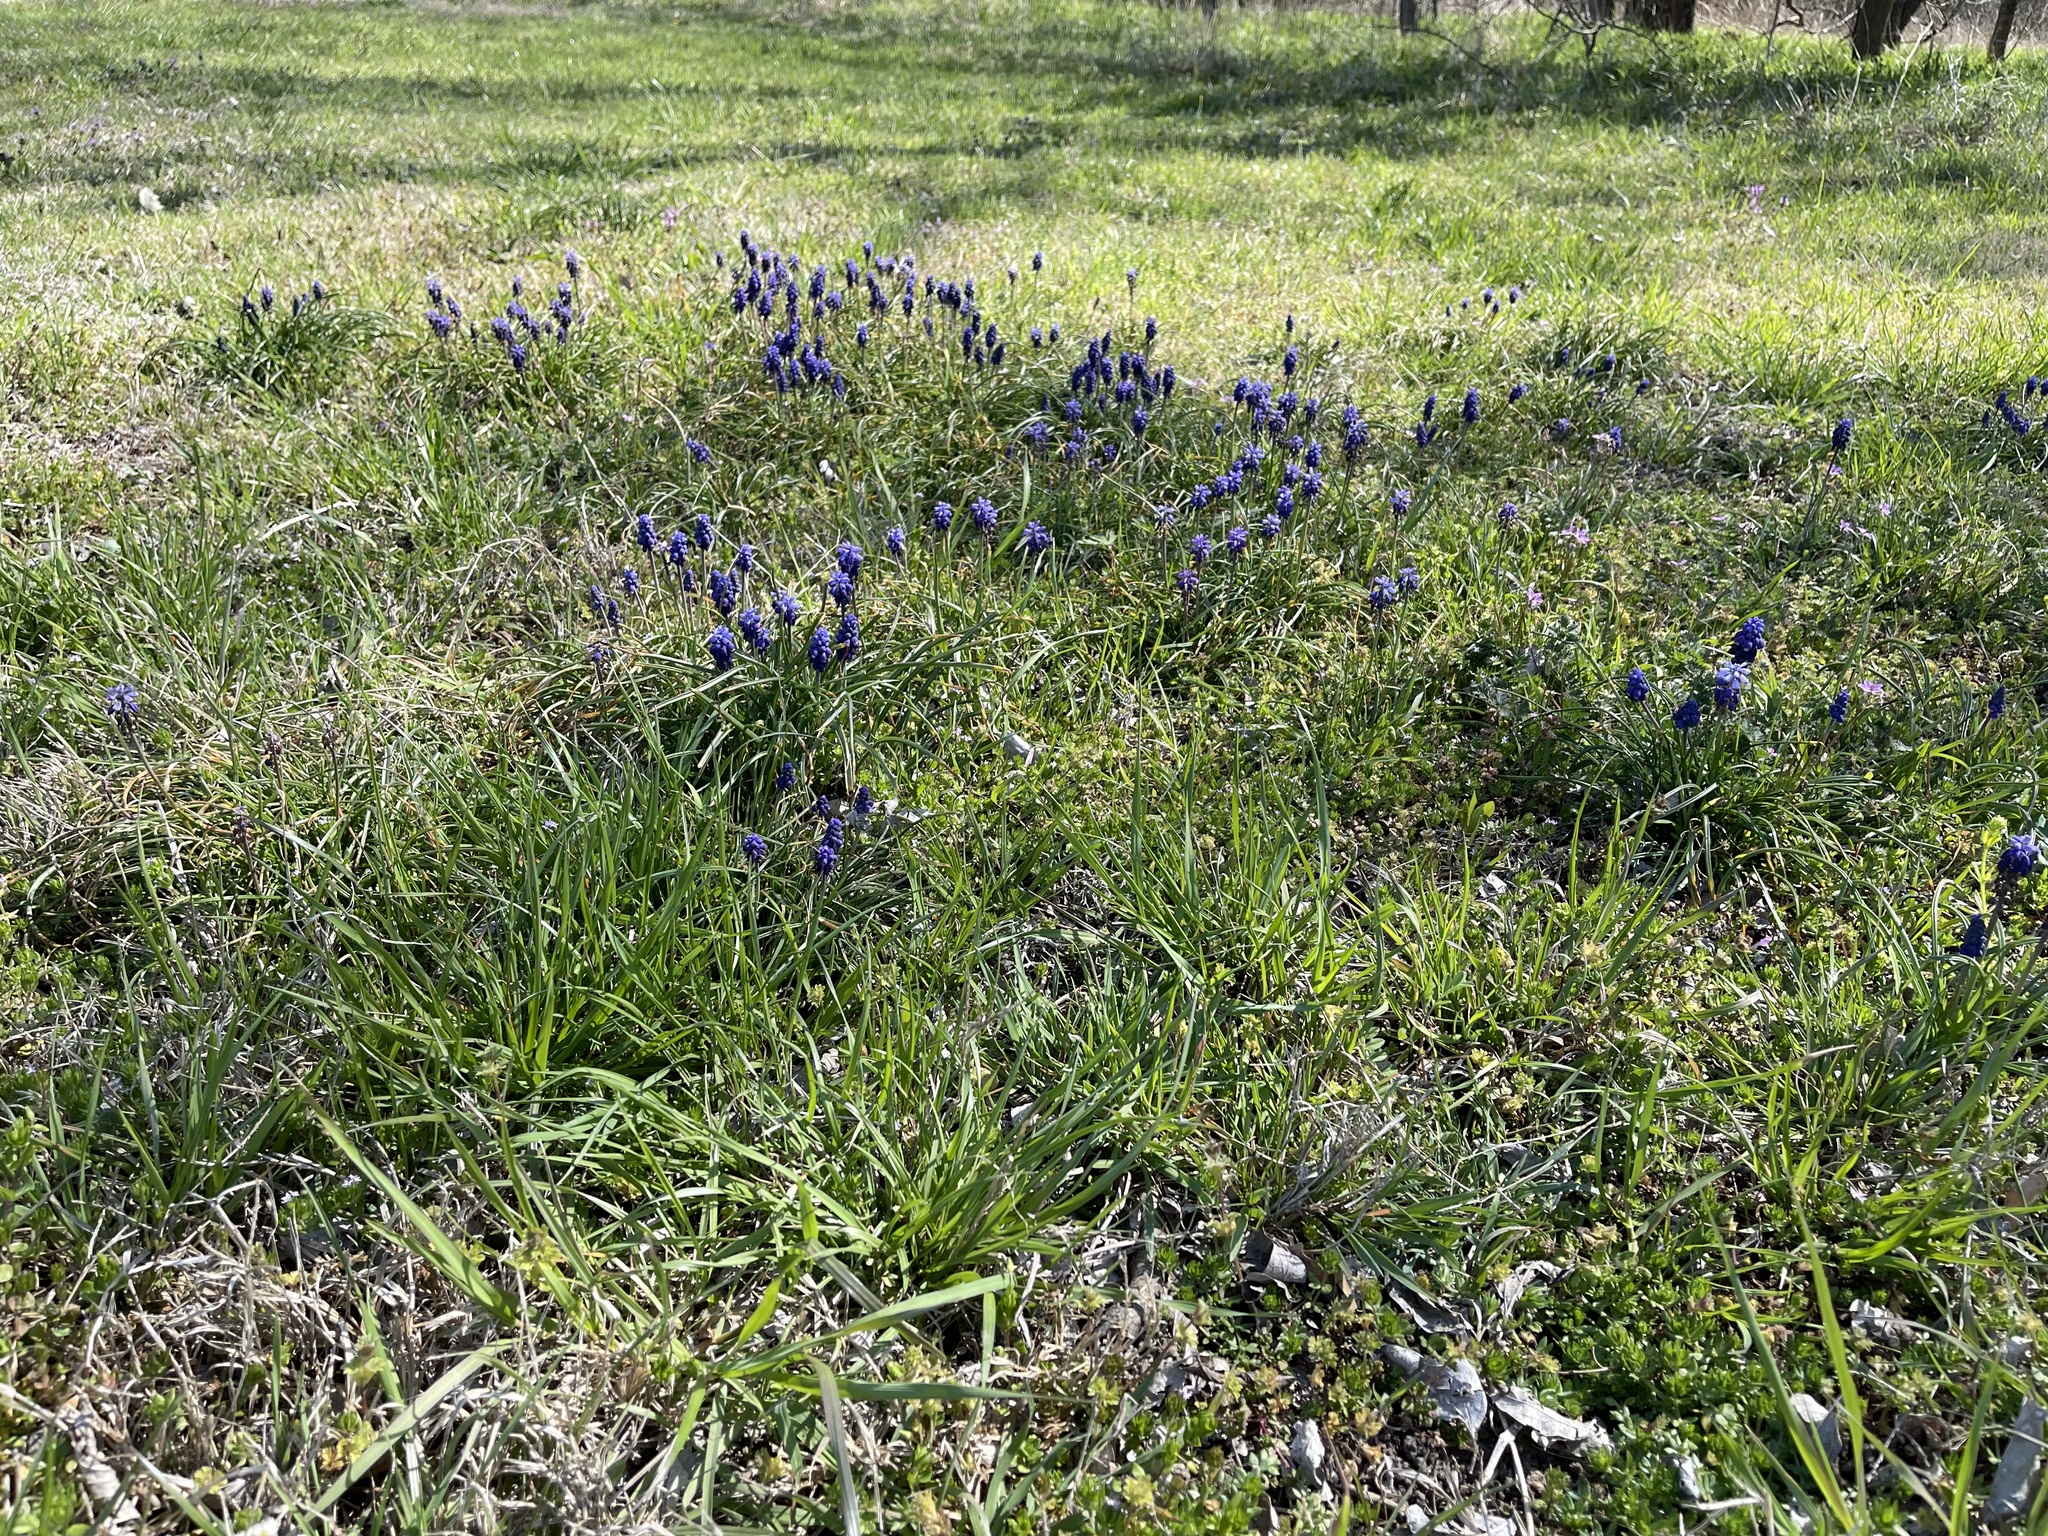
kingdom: Plantae
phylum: Tracheophyta
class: Liliopsida
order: Asparagales
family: Asparagaceae
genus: Muscari
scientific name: Muscari neglectum
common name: Grape-hyacinth
